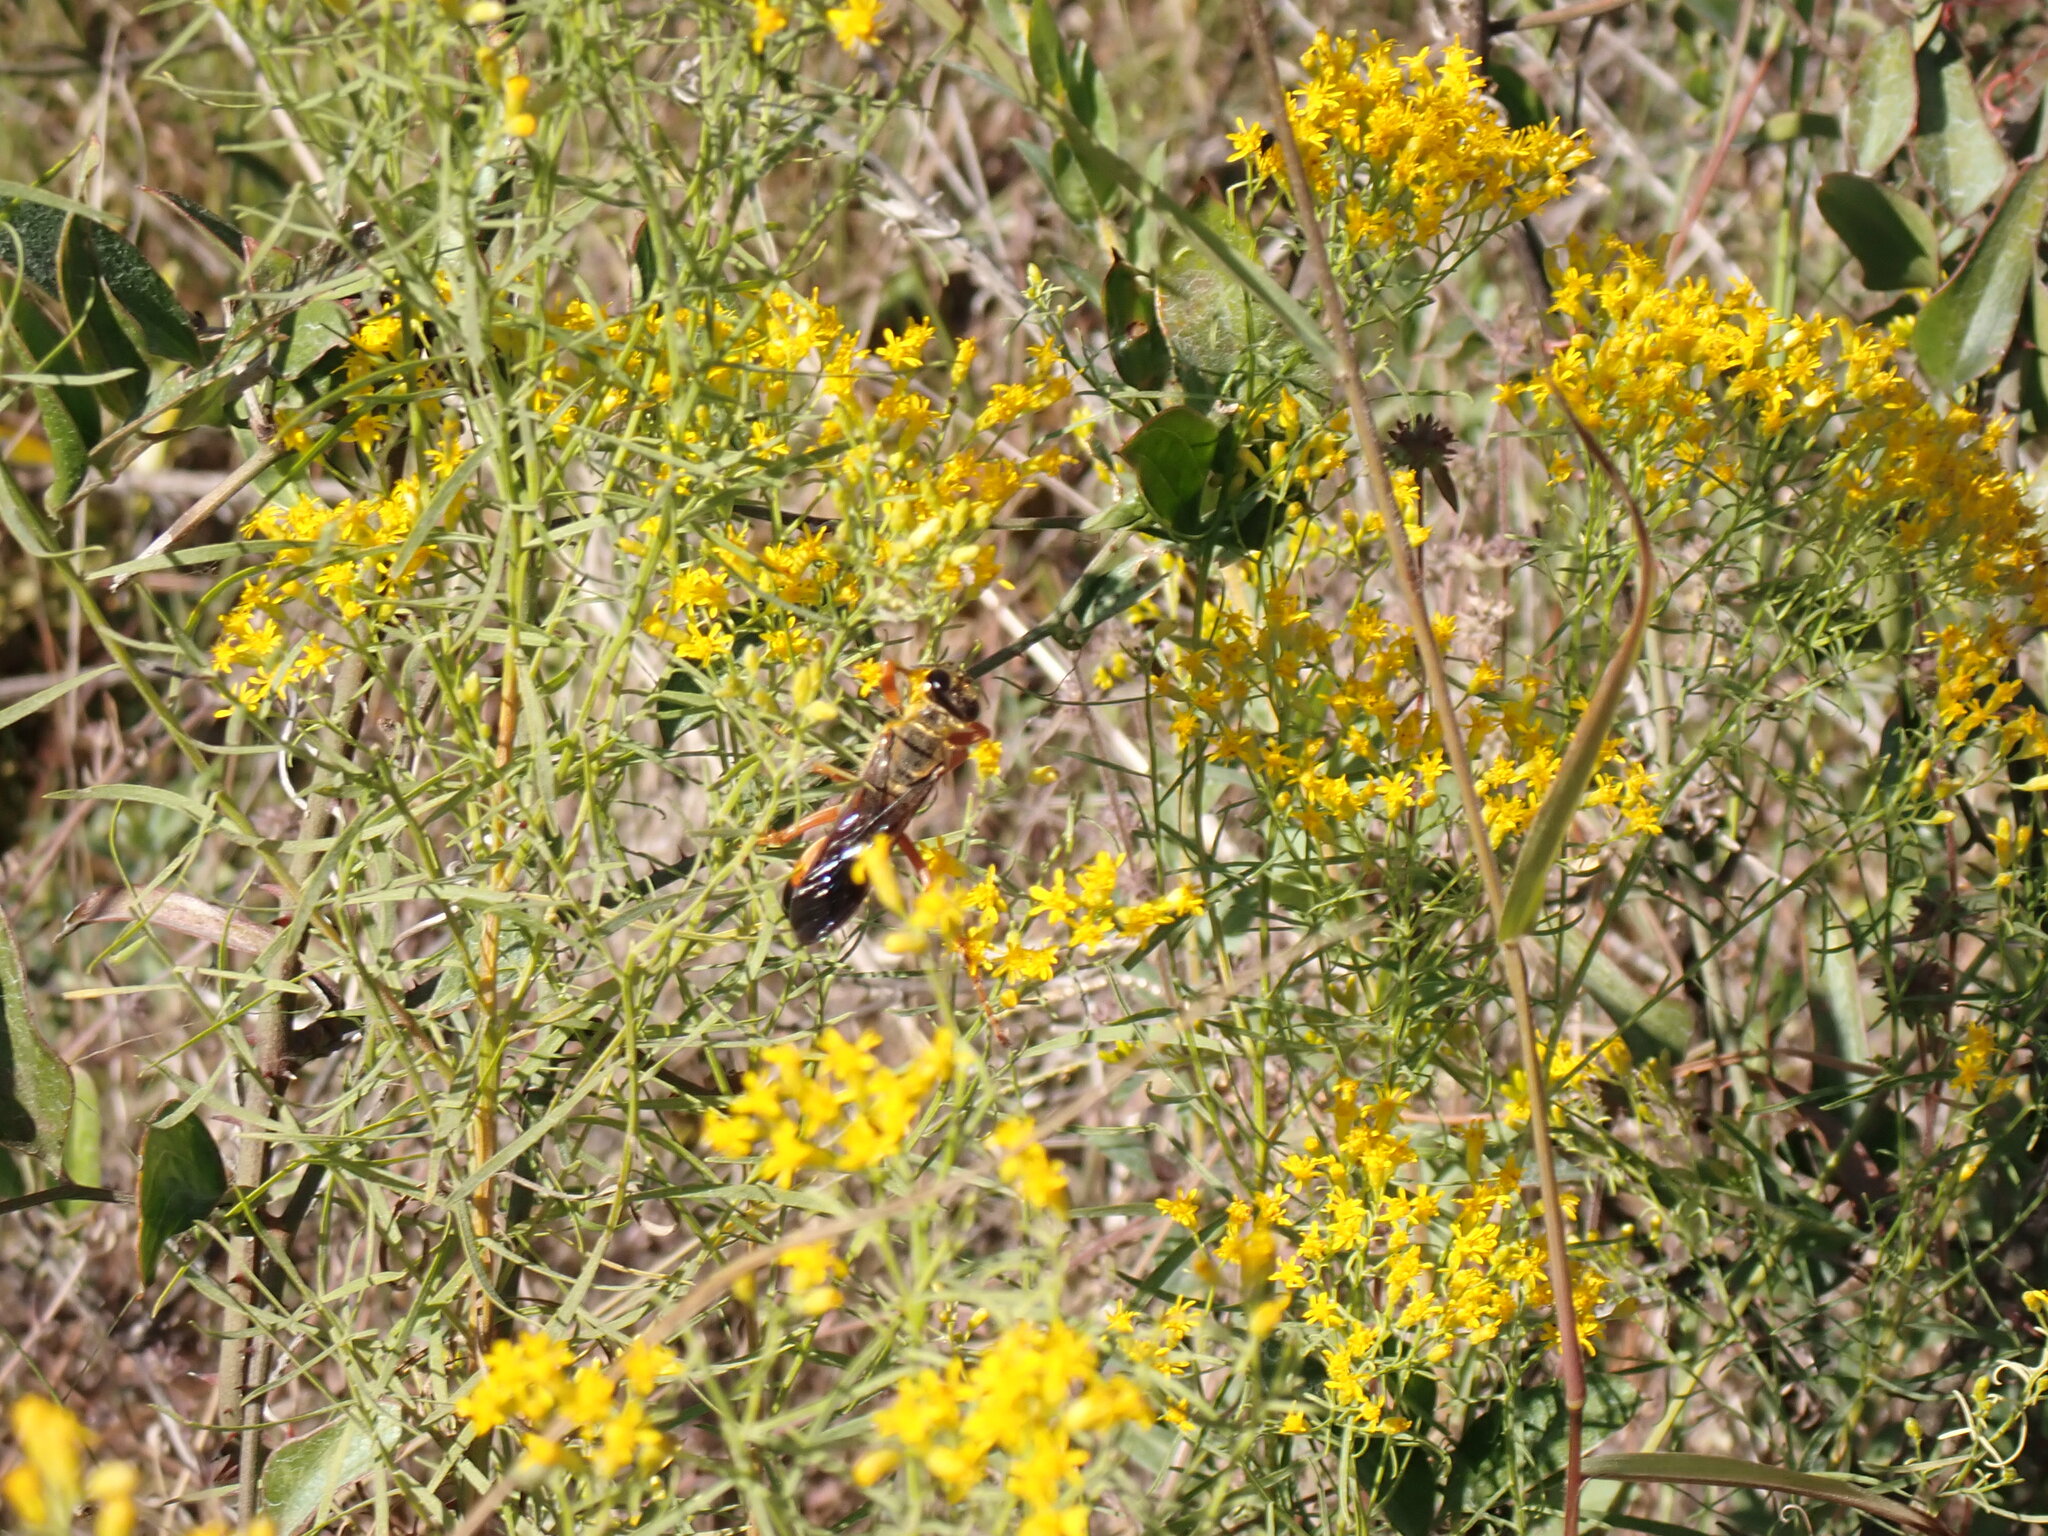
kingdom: Animalia
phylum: Arthropoda
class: Insecta
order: Hymenoptera
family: Sphecidae
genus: Sphex
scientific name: Sphex ichneumoneus
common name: Great golden digger wasp
